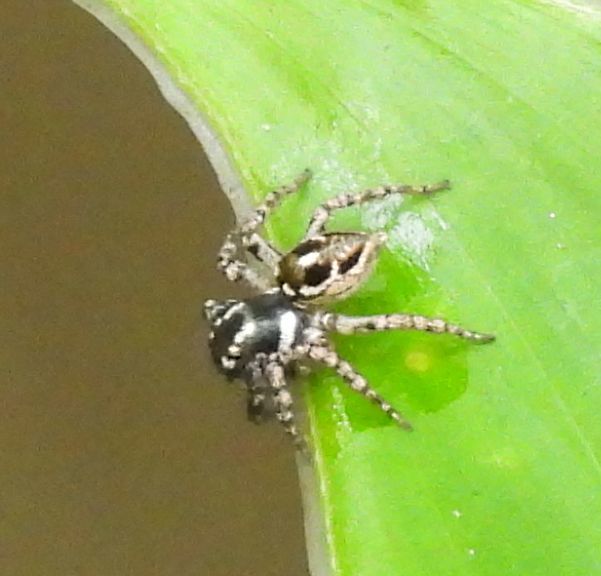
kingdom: Animalia
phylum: Arthropoda
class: Arachnida
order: Araneae
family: Salticidae
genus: Anasaitis
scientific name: Anasaitis canosa
